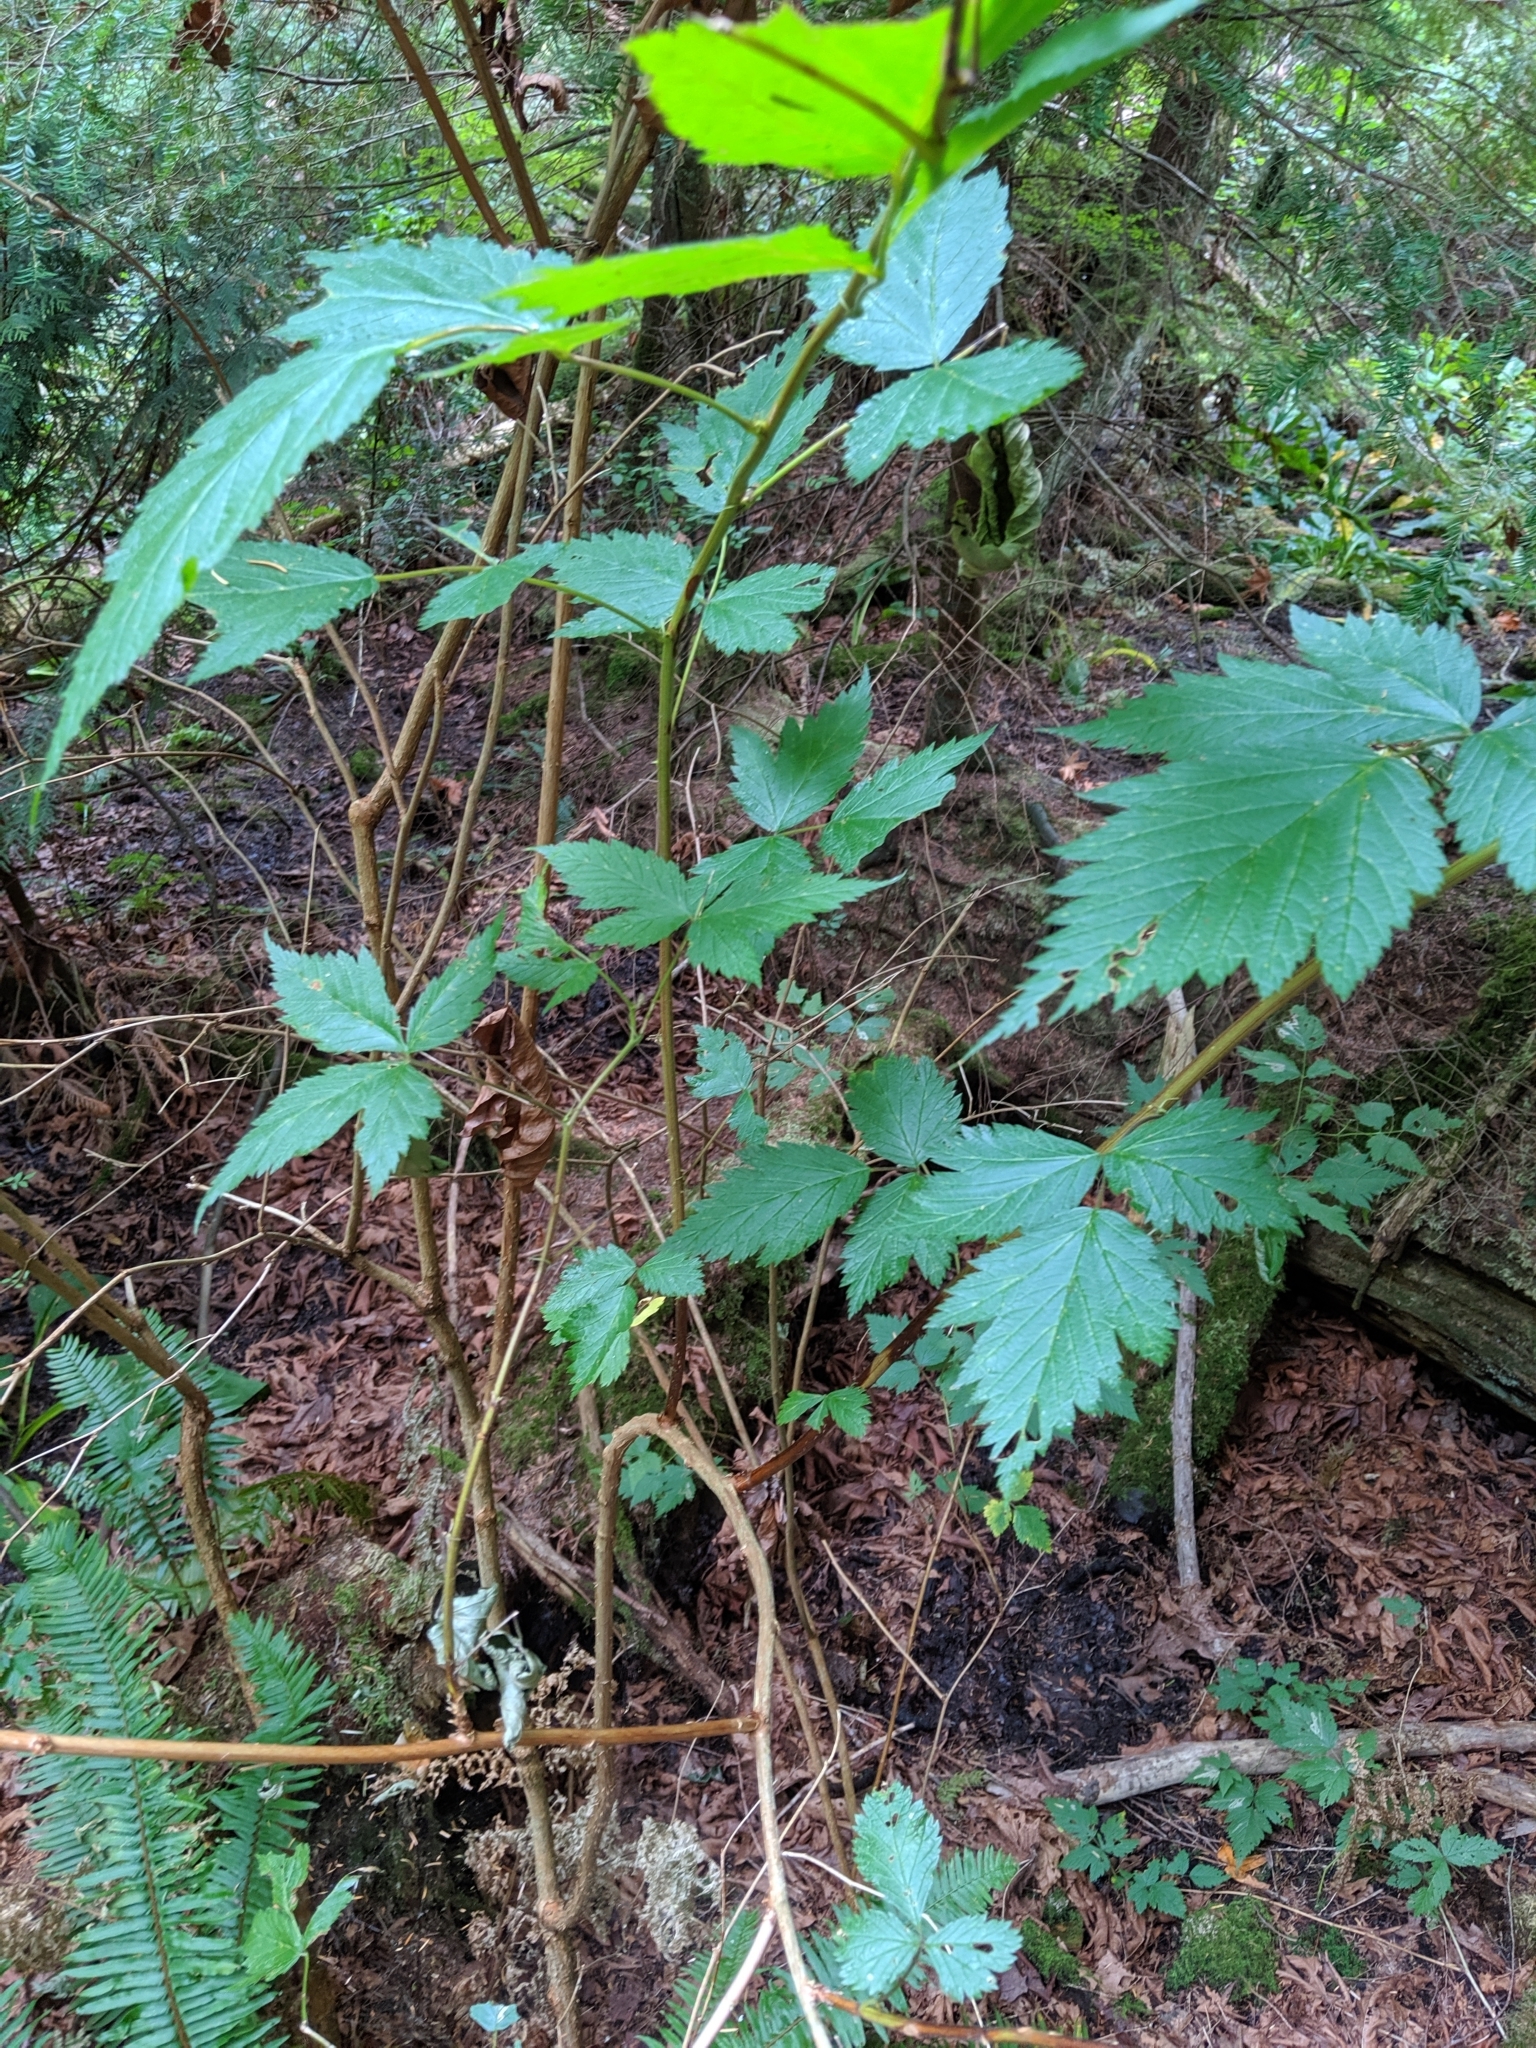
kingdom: Plantae
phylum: Tracheophyta
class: Magnoliopsida
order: Rosales
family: Rosaceae
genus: Rubus
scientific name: Rubus spectabilis
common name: Salmonberry
